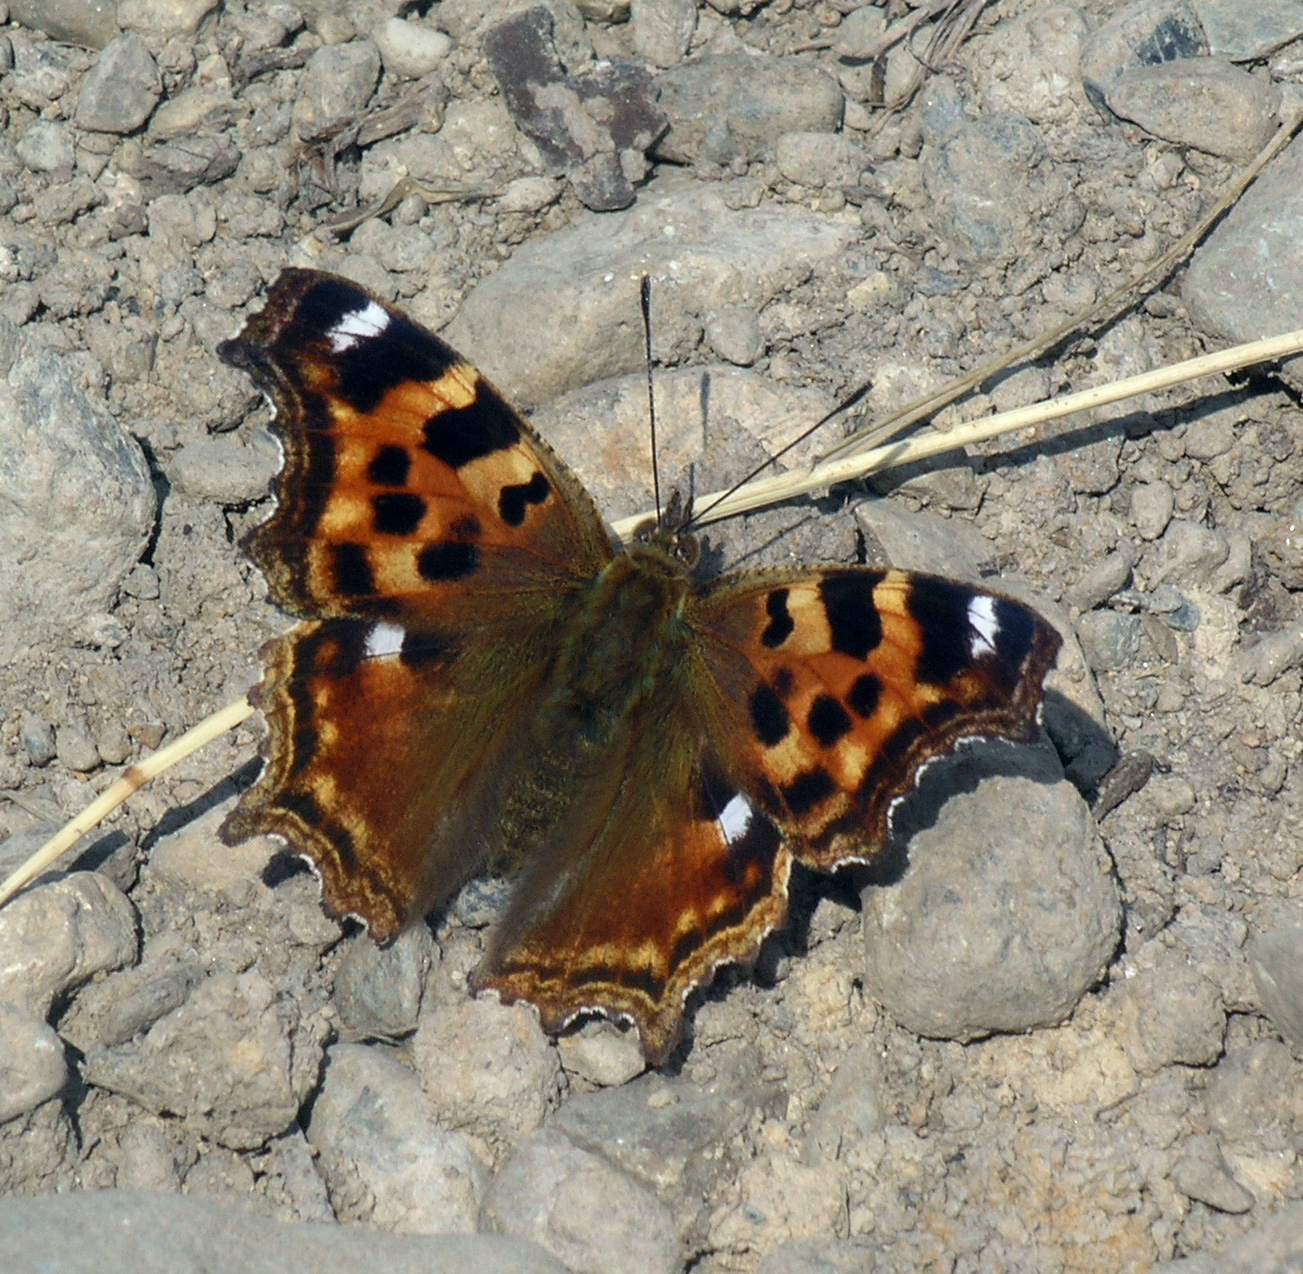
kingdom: Animalia
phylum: Arthropoda
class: Insecta
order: Lepidoptera
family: Nymphalidae
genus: Polygonia
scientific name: Polygonia vaualbum
